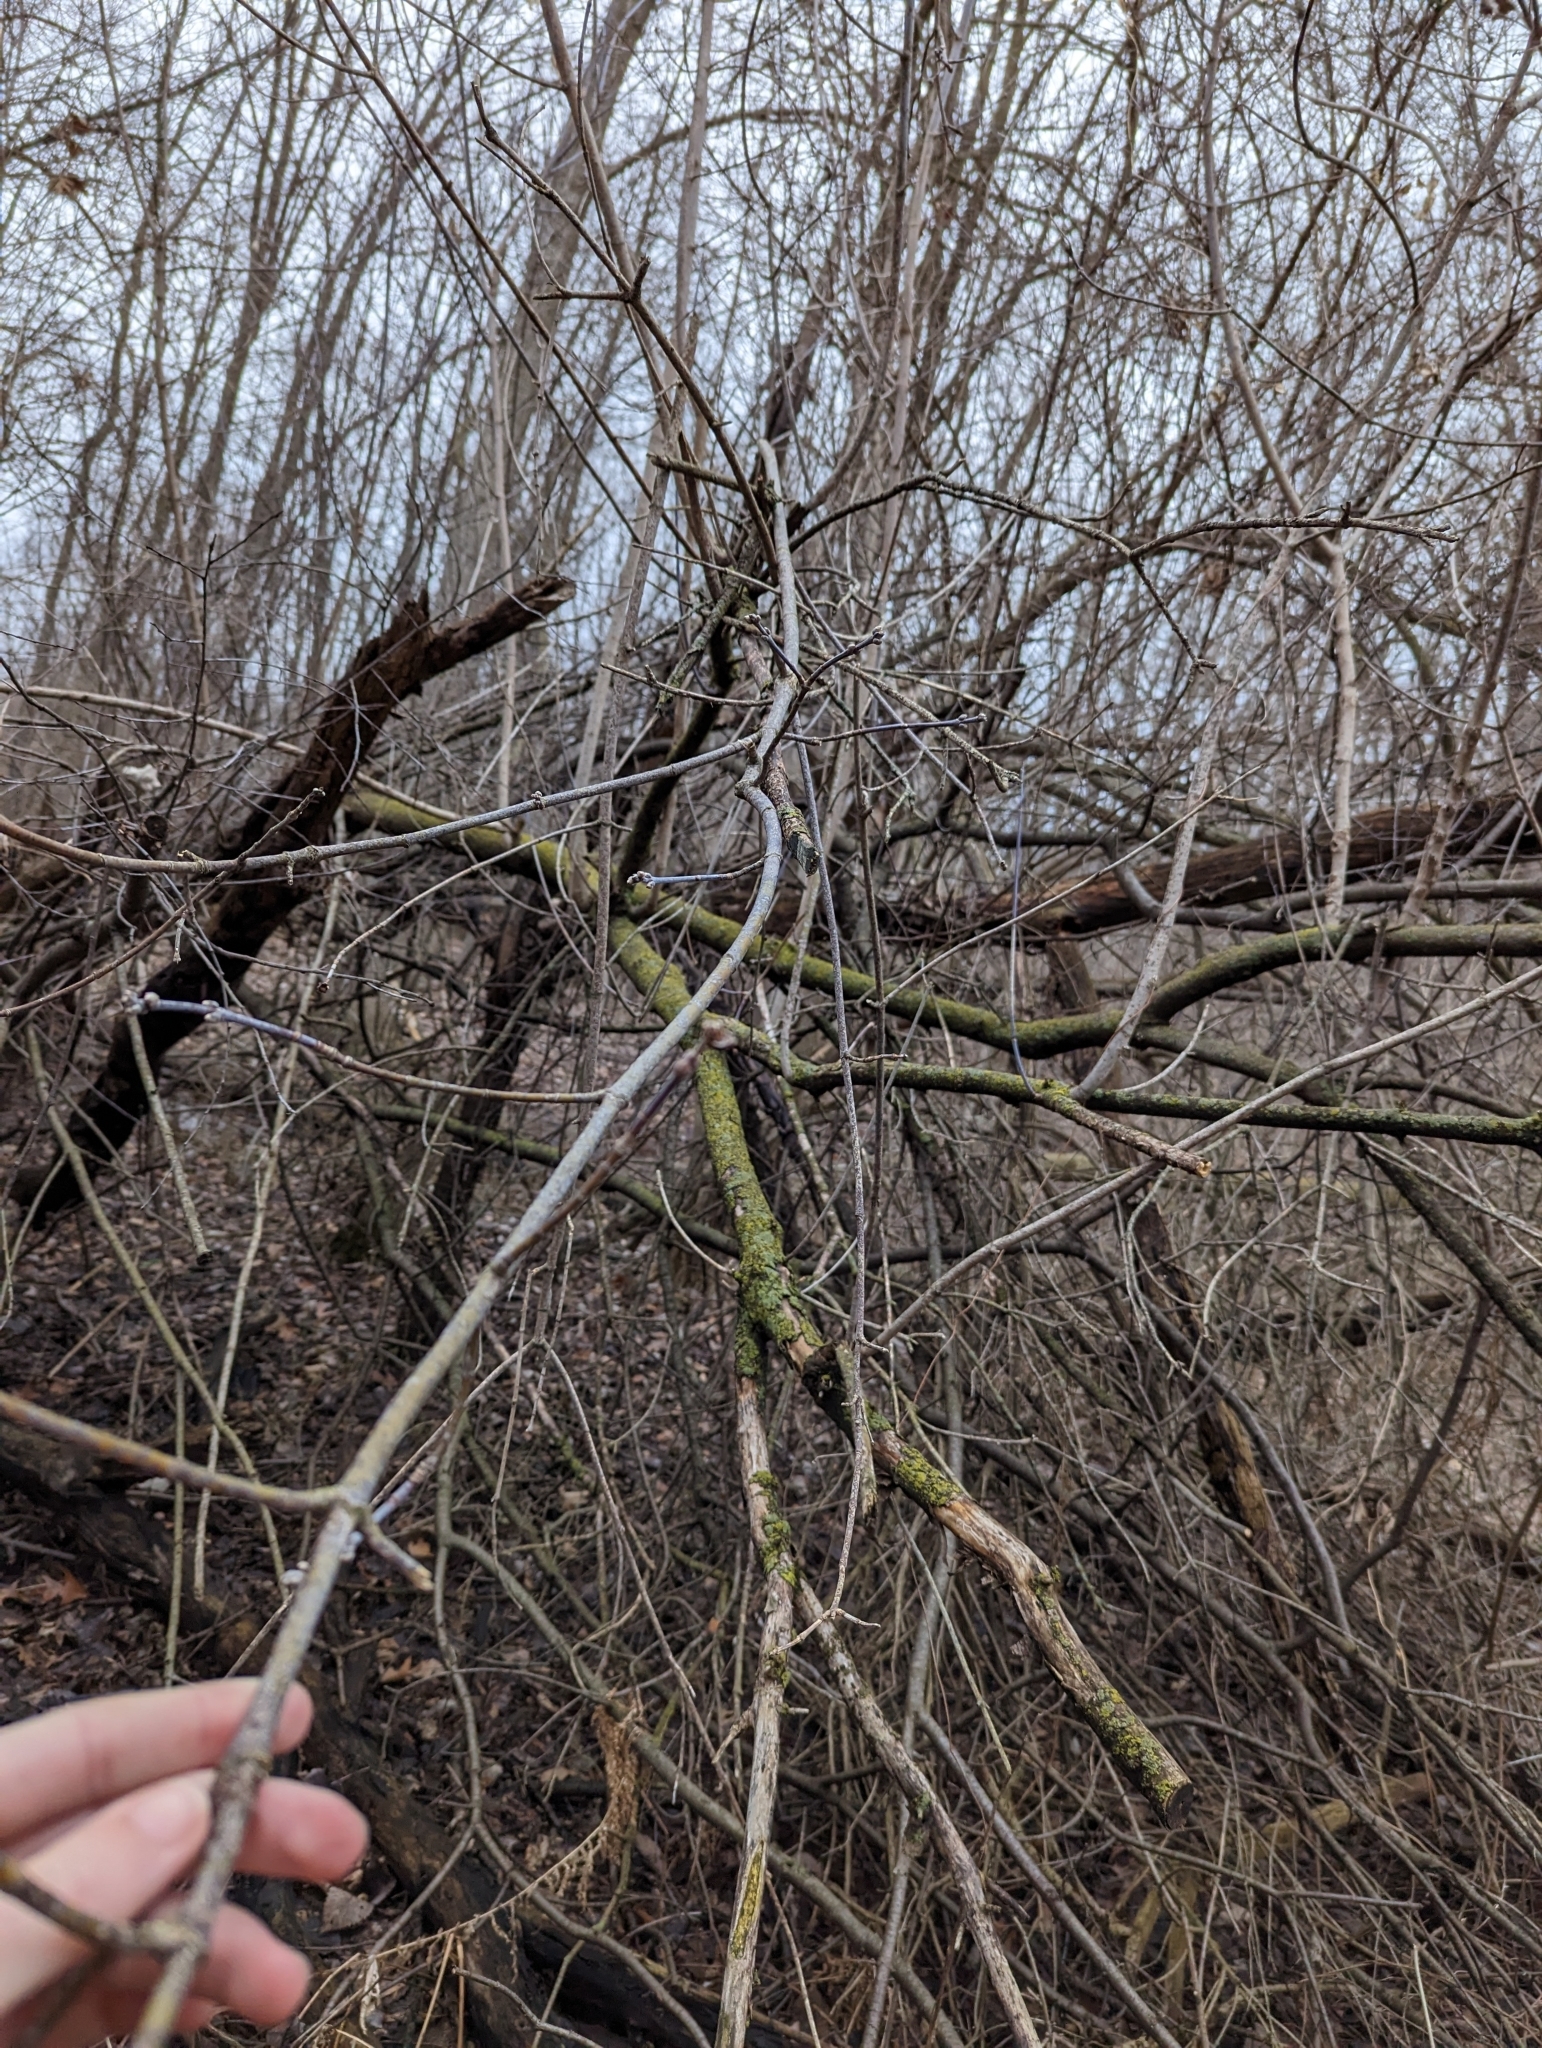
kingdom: Plantae
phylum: Tracheophyta
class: Magnoliopsida
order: Sapindales
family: Sapindaceae
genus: Acer
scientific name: Acer negundo
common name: Ashleaf maple
